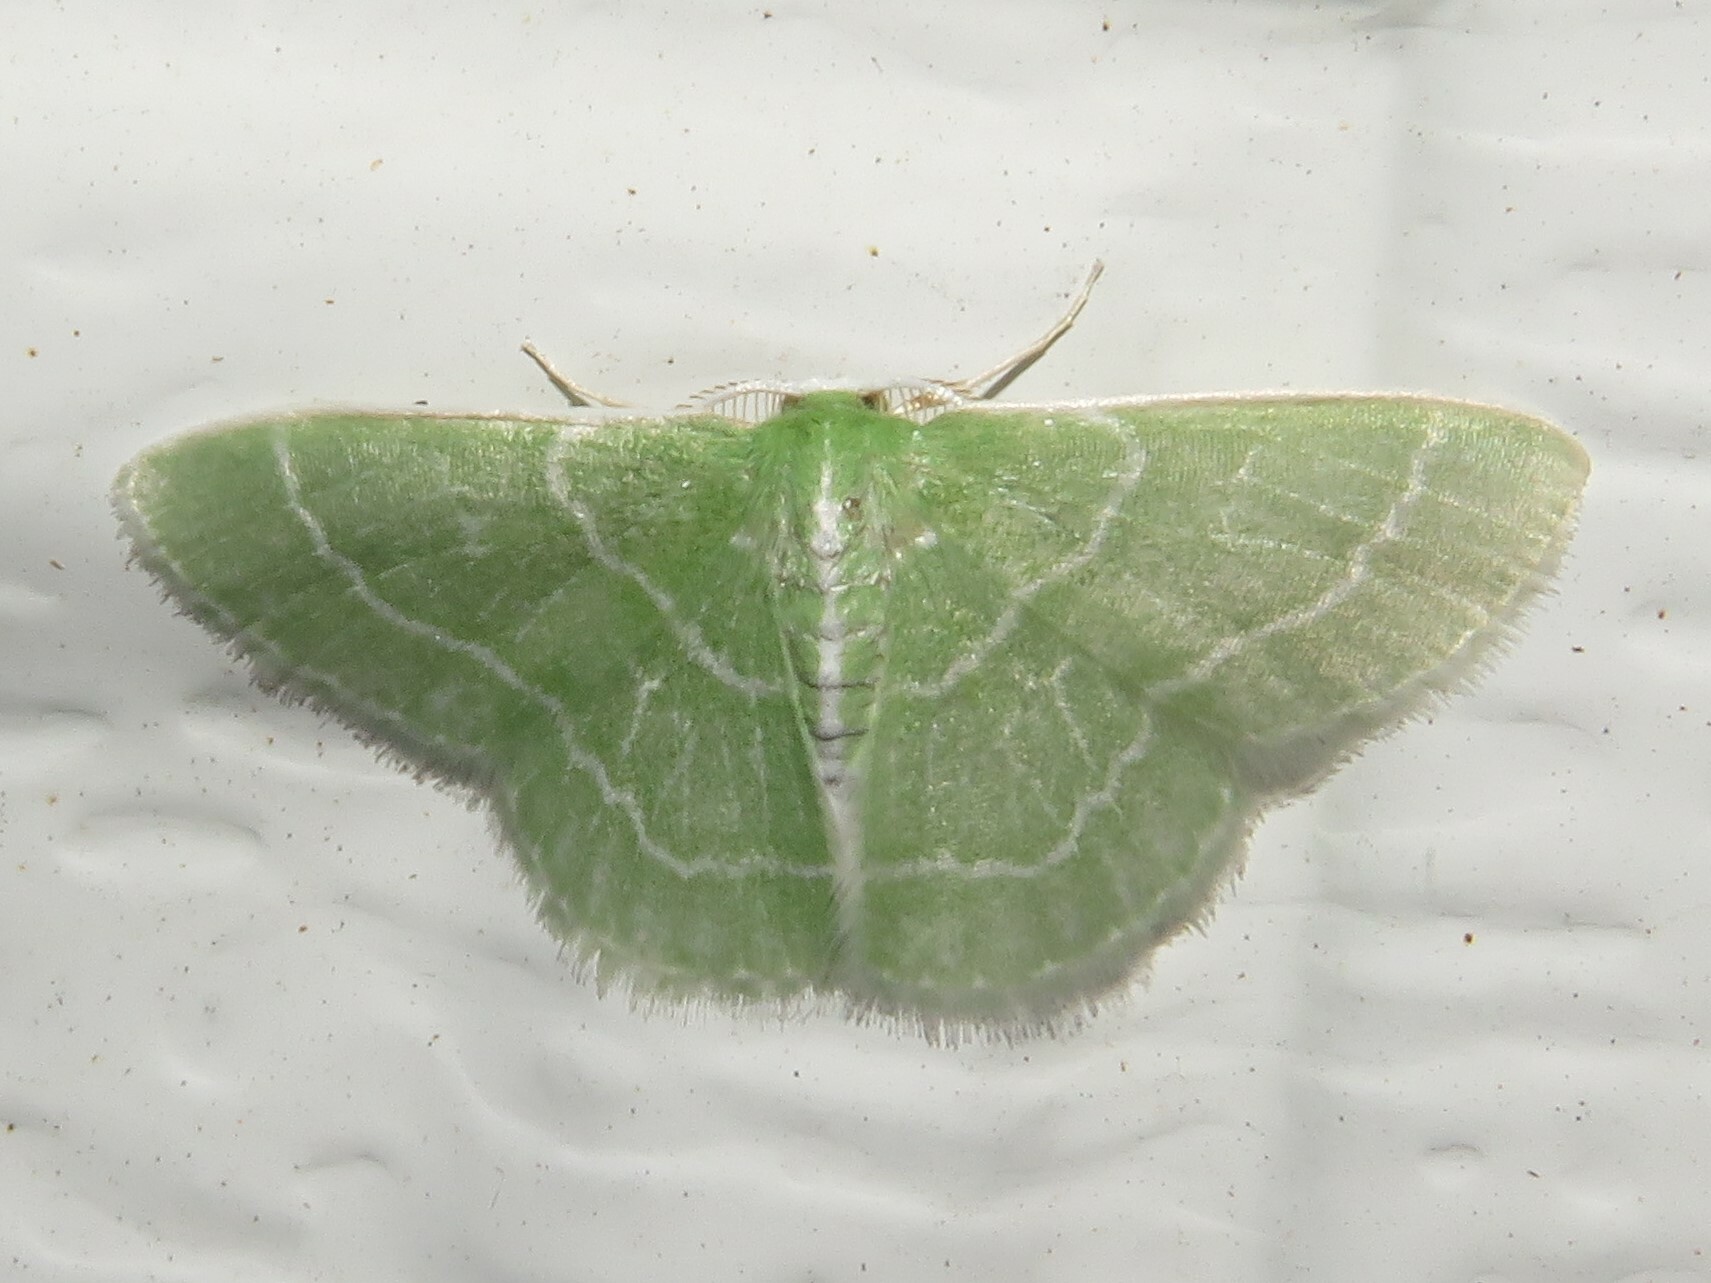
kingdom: Animalia
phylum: Arthropoda
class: Insecta
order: Lepidoptera
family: Geometridae
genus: Synchlora
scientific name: Synchlora aerata
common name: Wavy-lined emerald
